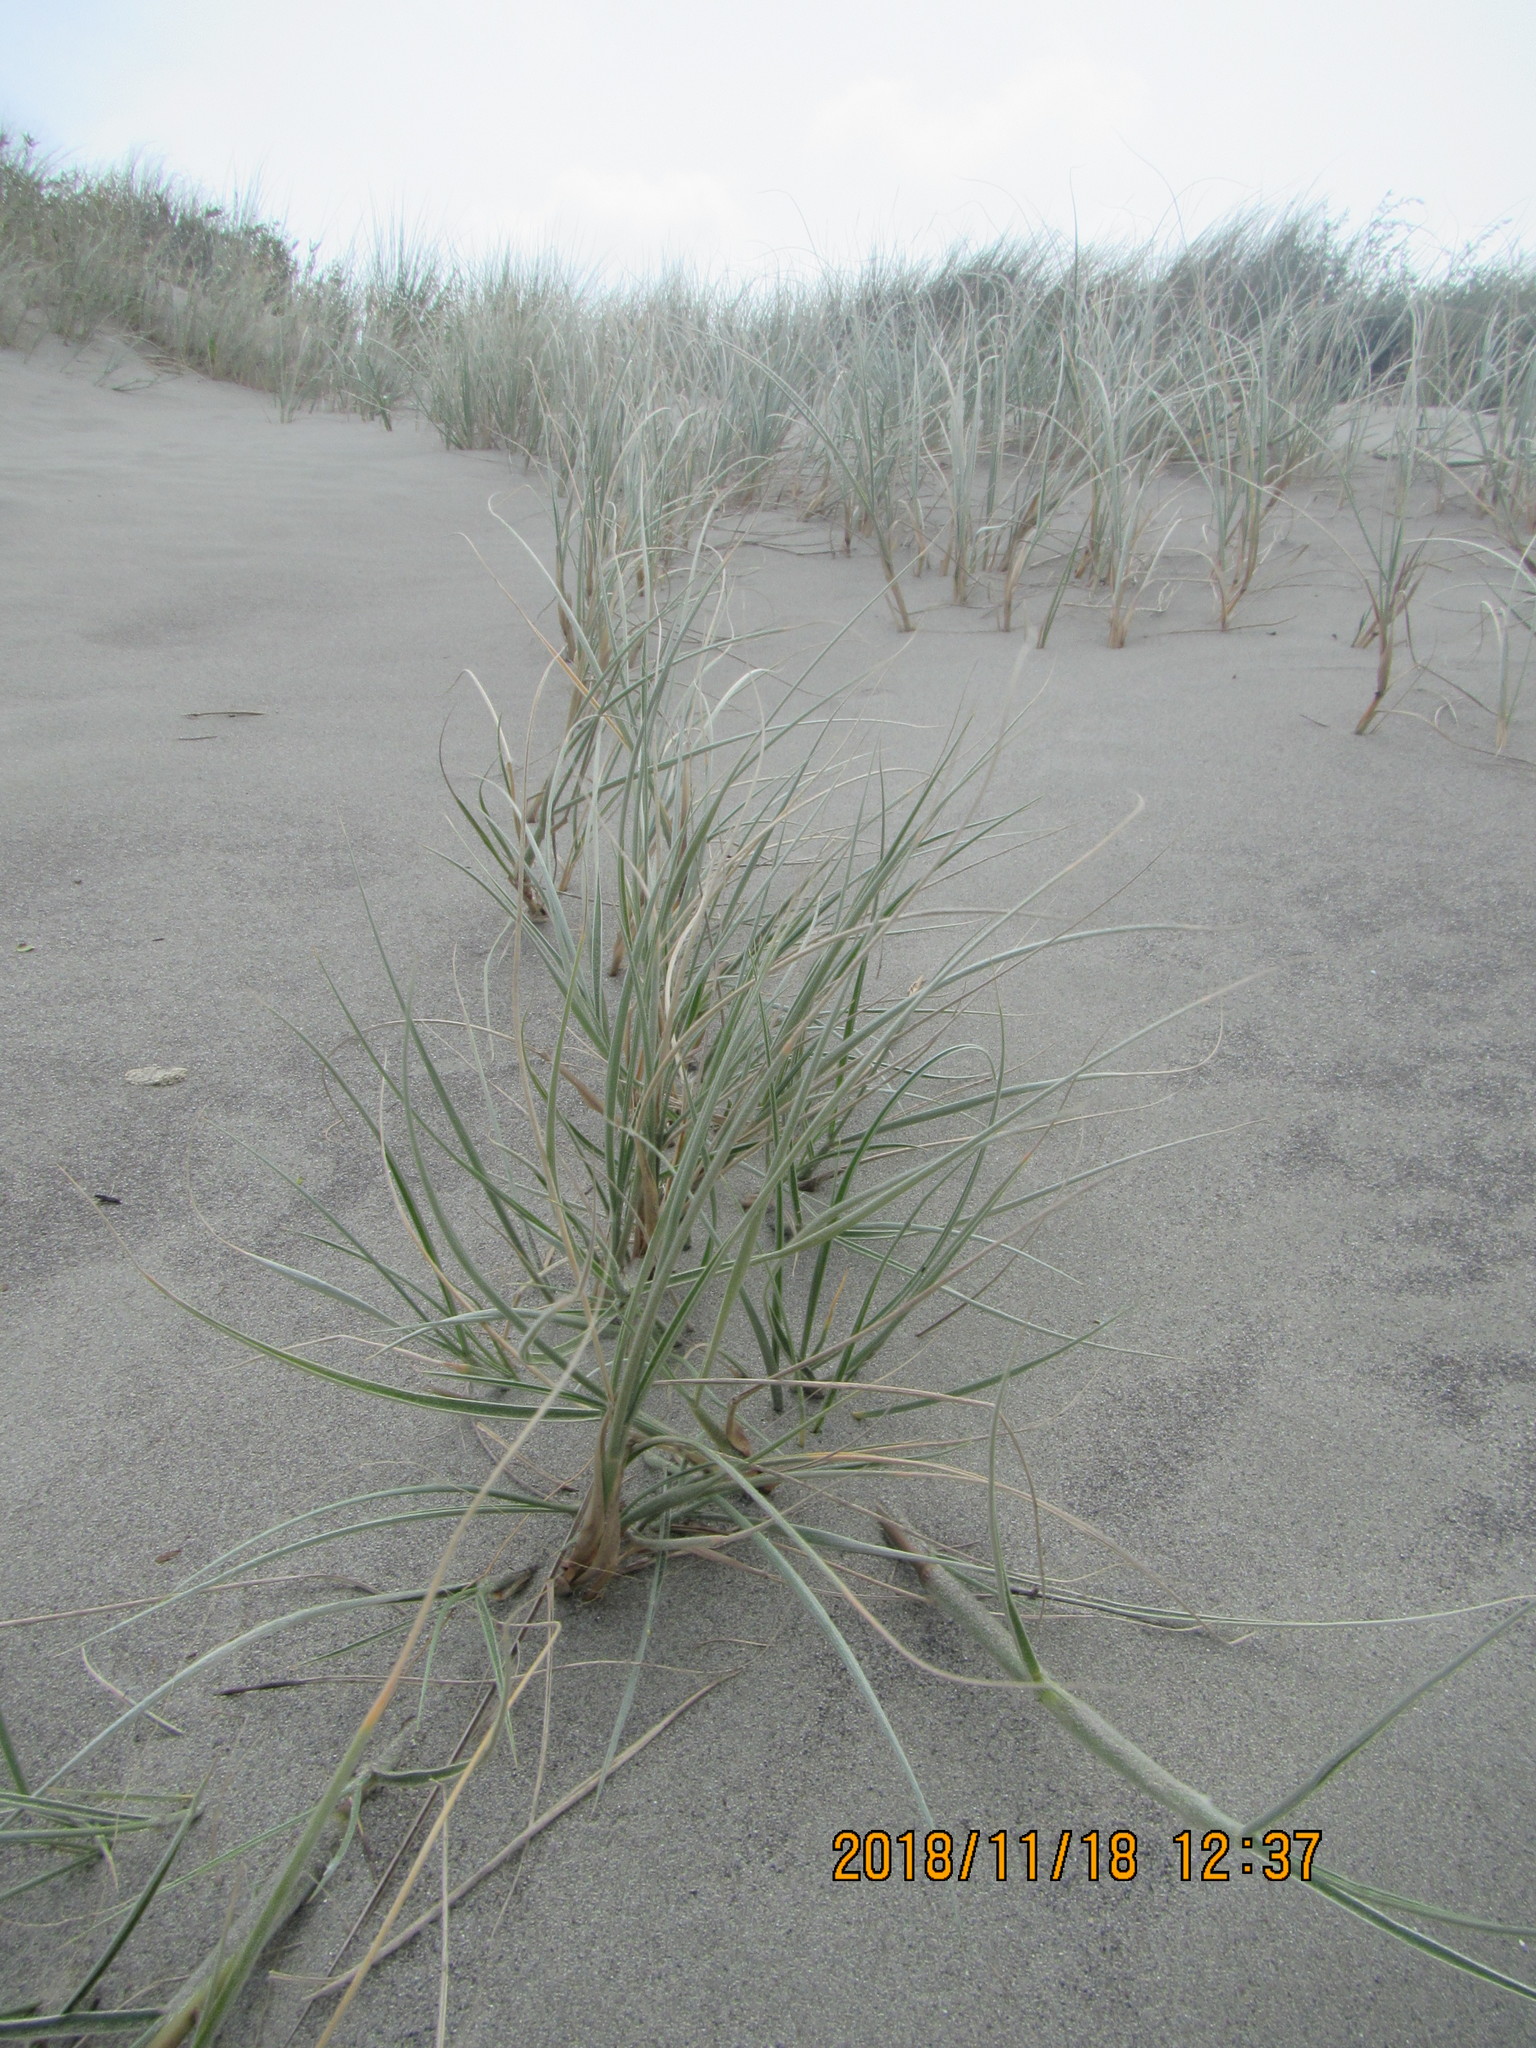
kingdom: Plantae
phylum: Tracheophyta
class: Liliopsida
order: Poales
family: Poaceae
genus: Spinifex
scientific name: Spinifex sericeus
